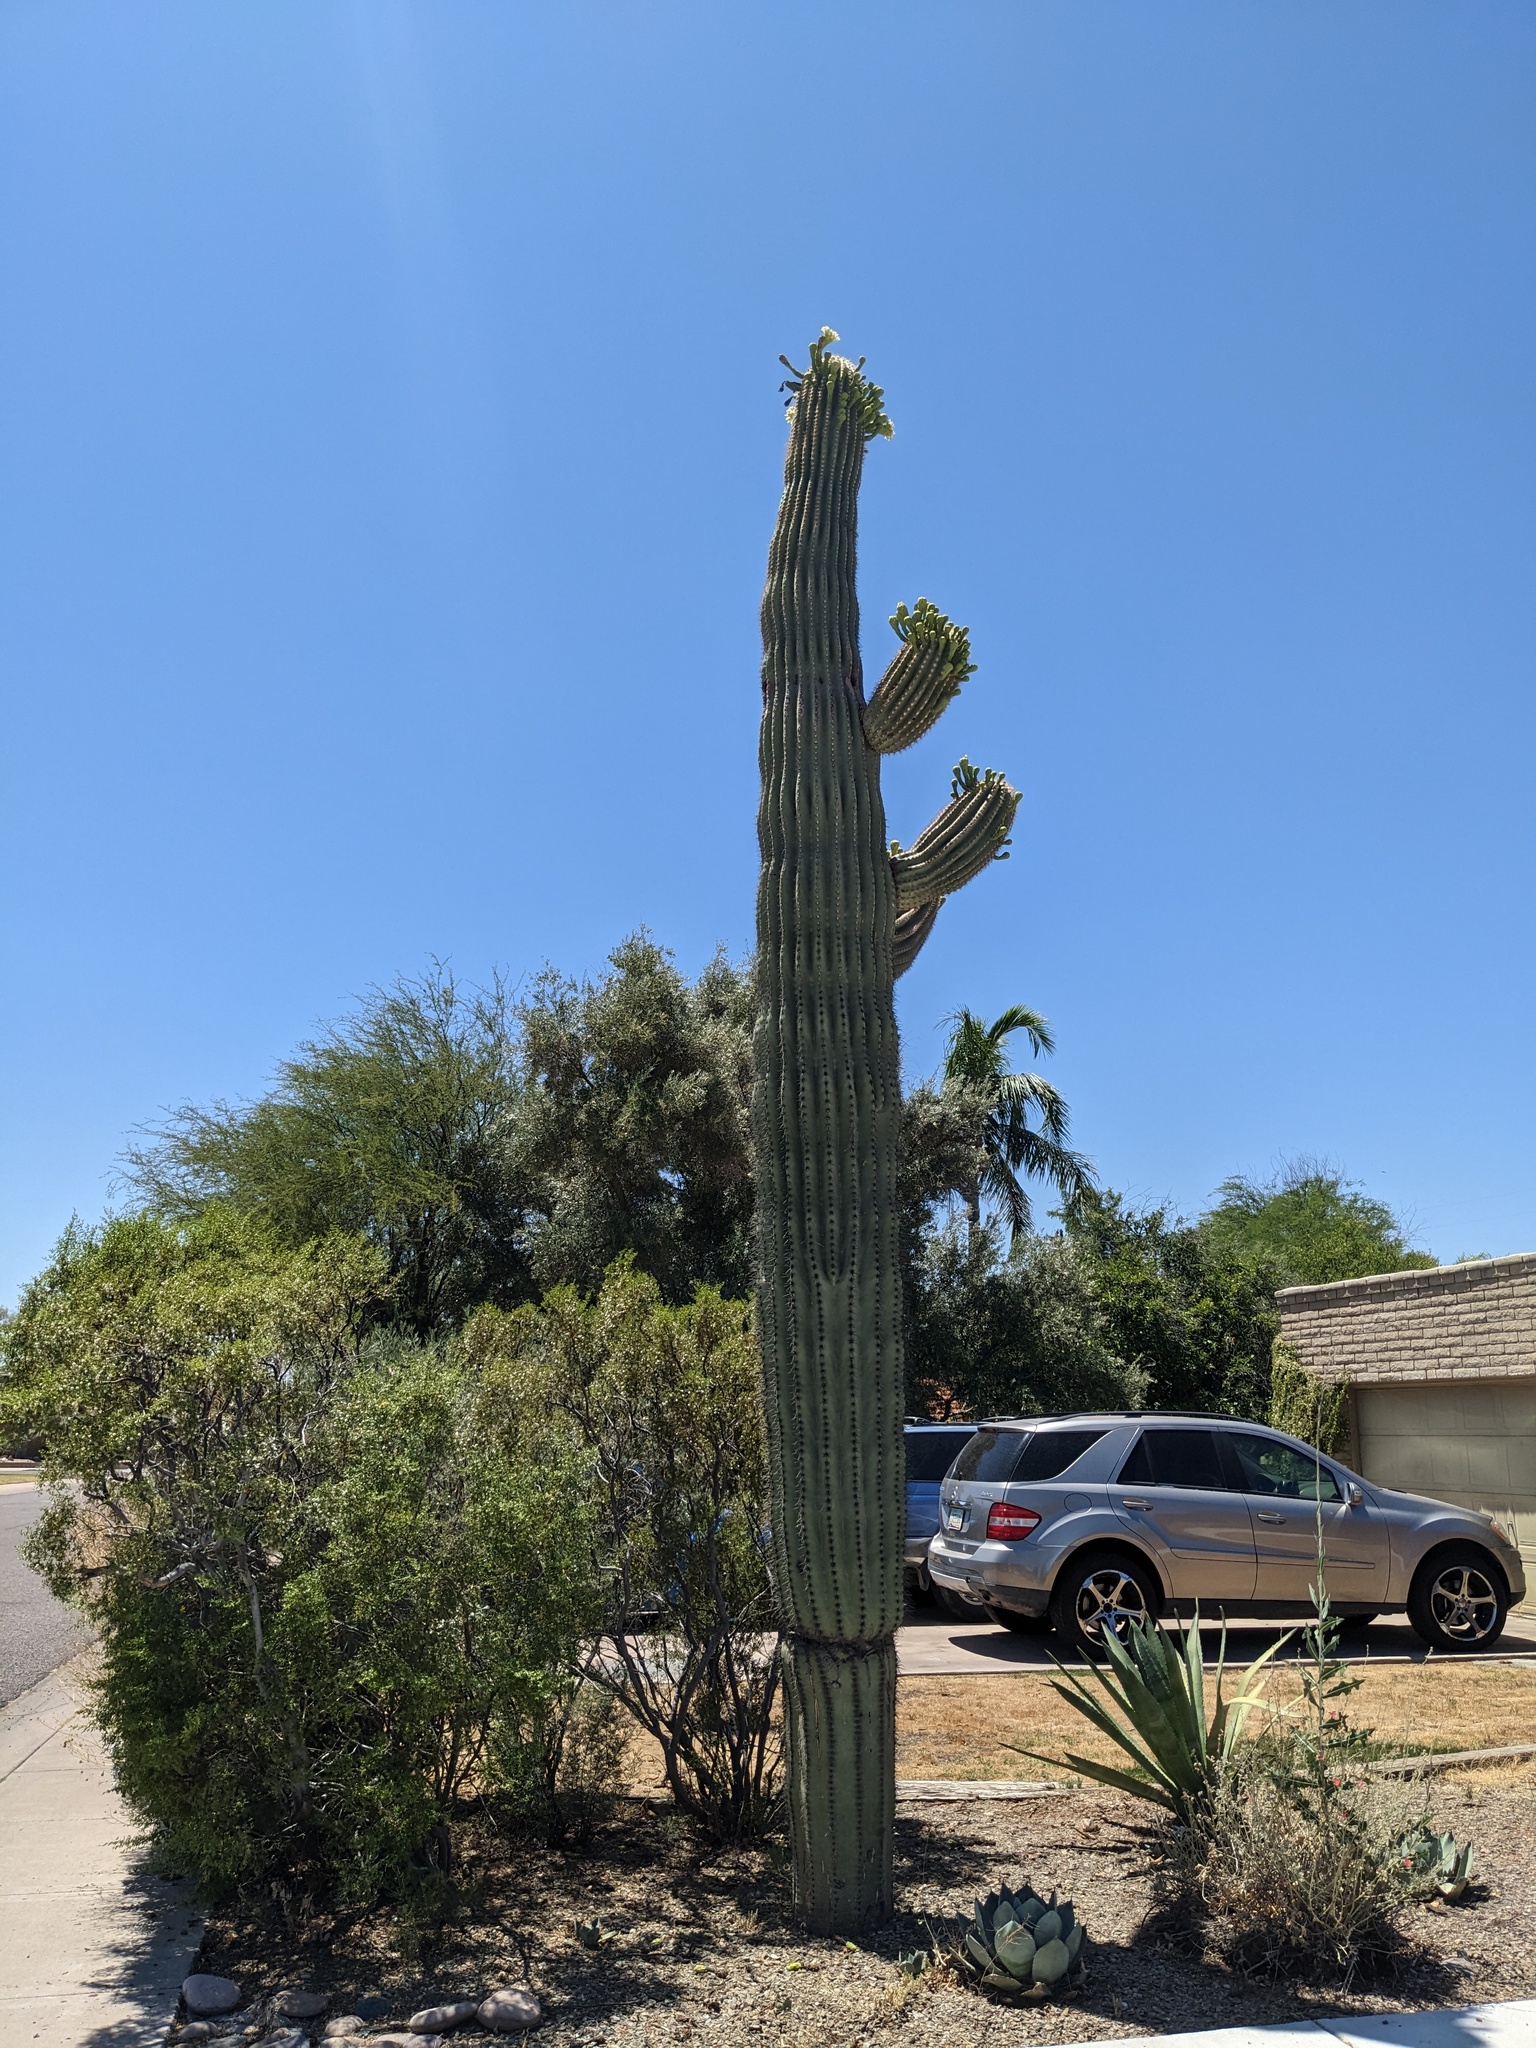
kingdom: Plantae
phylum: Tracheophyta
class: Magnoliopsida
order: Caryophyllales
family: Cactaceae
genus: Carnegiea
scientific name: Carnegiea gigantea
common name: Saguaro
